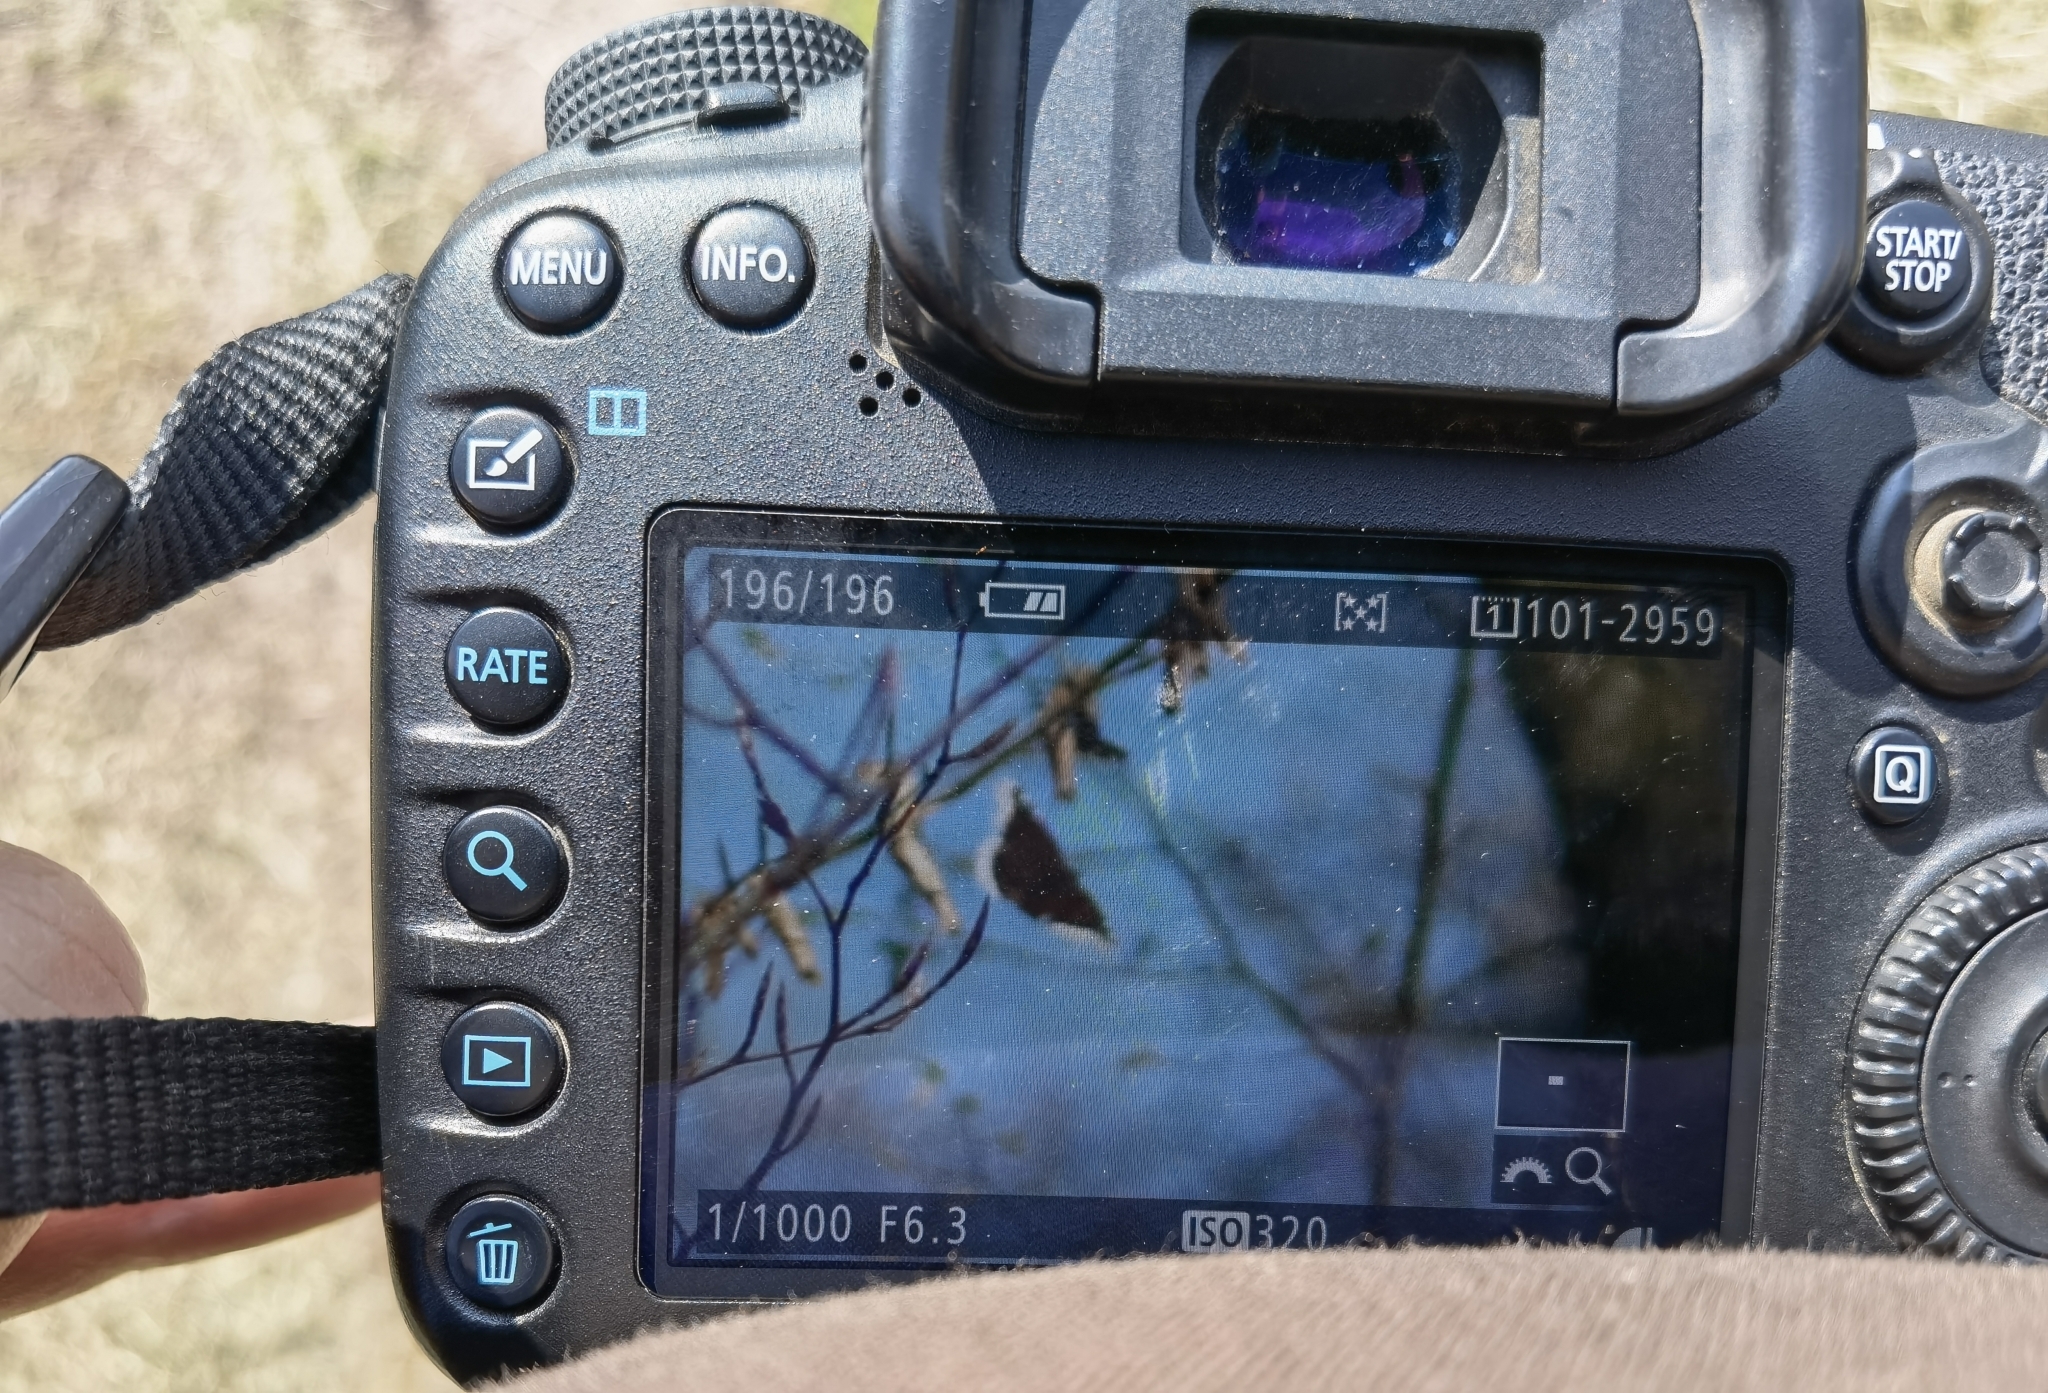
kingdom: Animalia
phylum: Arthropoda
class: Insecta
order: Lepidoptera
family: Nymphalidae
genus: Nymphalis
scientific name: Nymphalis antiopa
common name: Camberwell beauty
